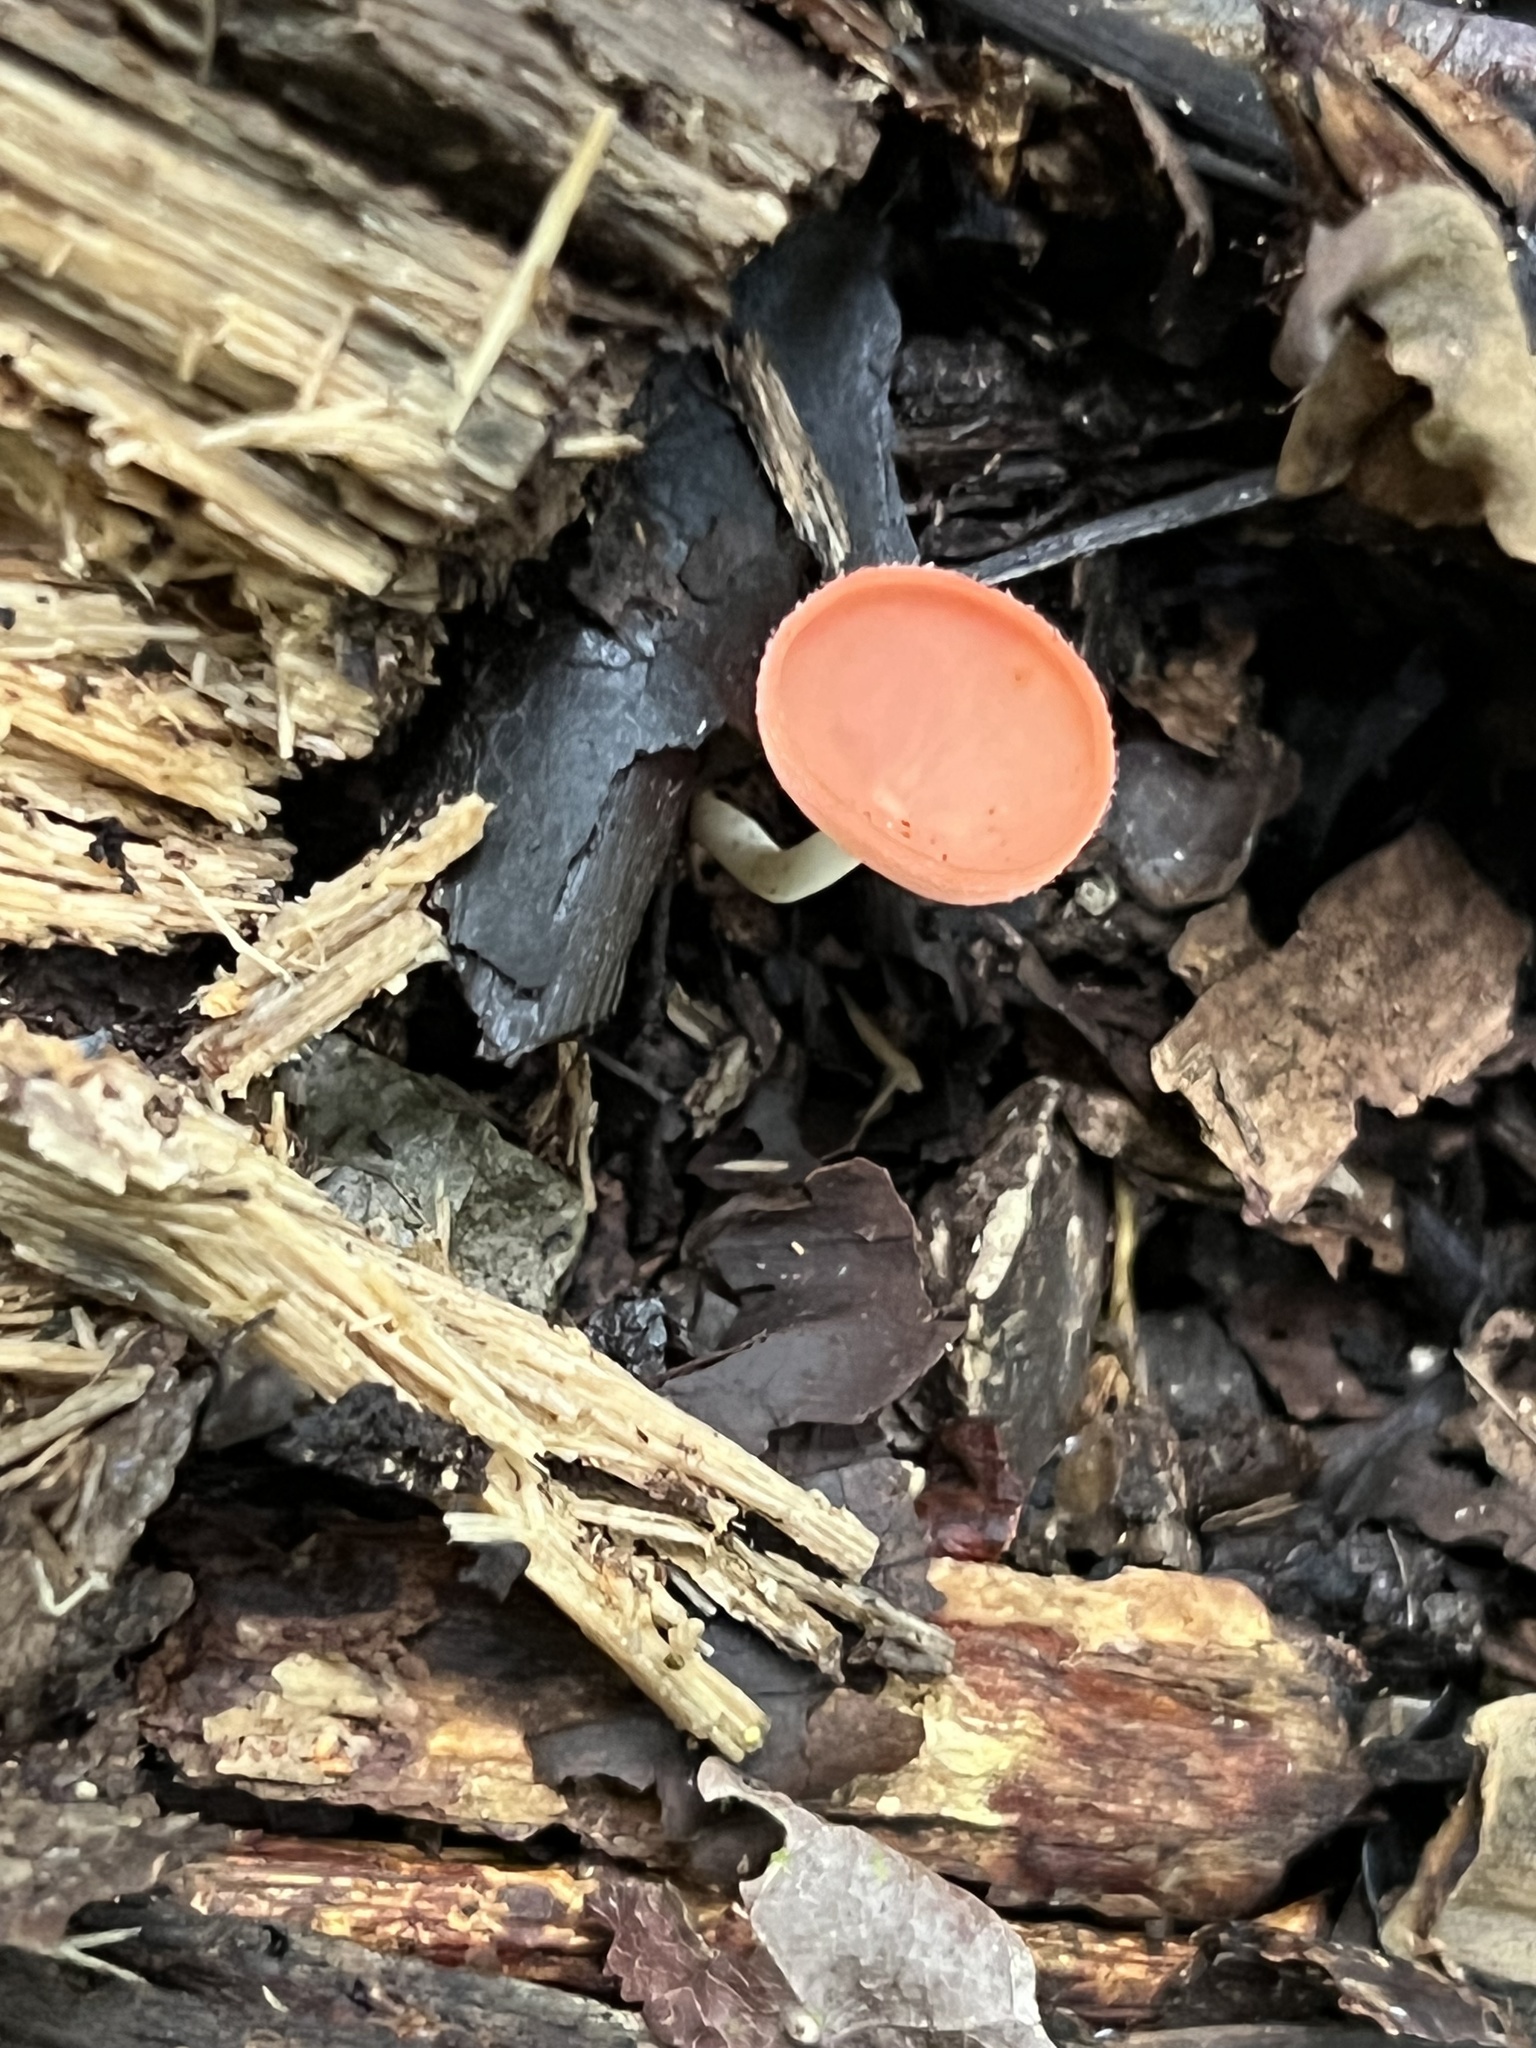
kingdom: Fungi
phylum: Ascomycota
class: Pezizomycetes
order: Pezizales
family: Sarcoscyphaceae
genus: Cookeina
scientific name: Cookeina speciosa
